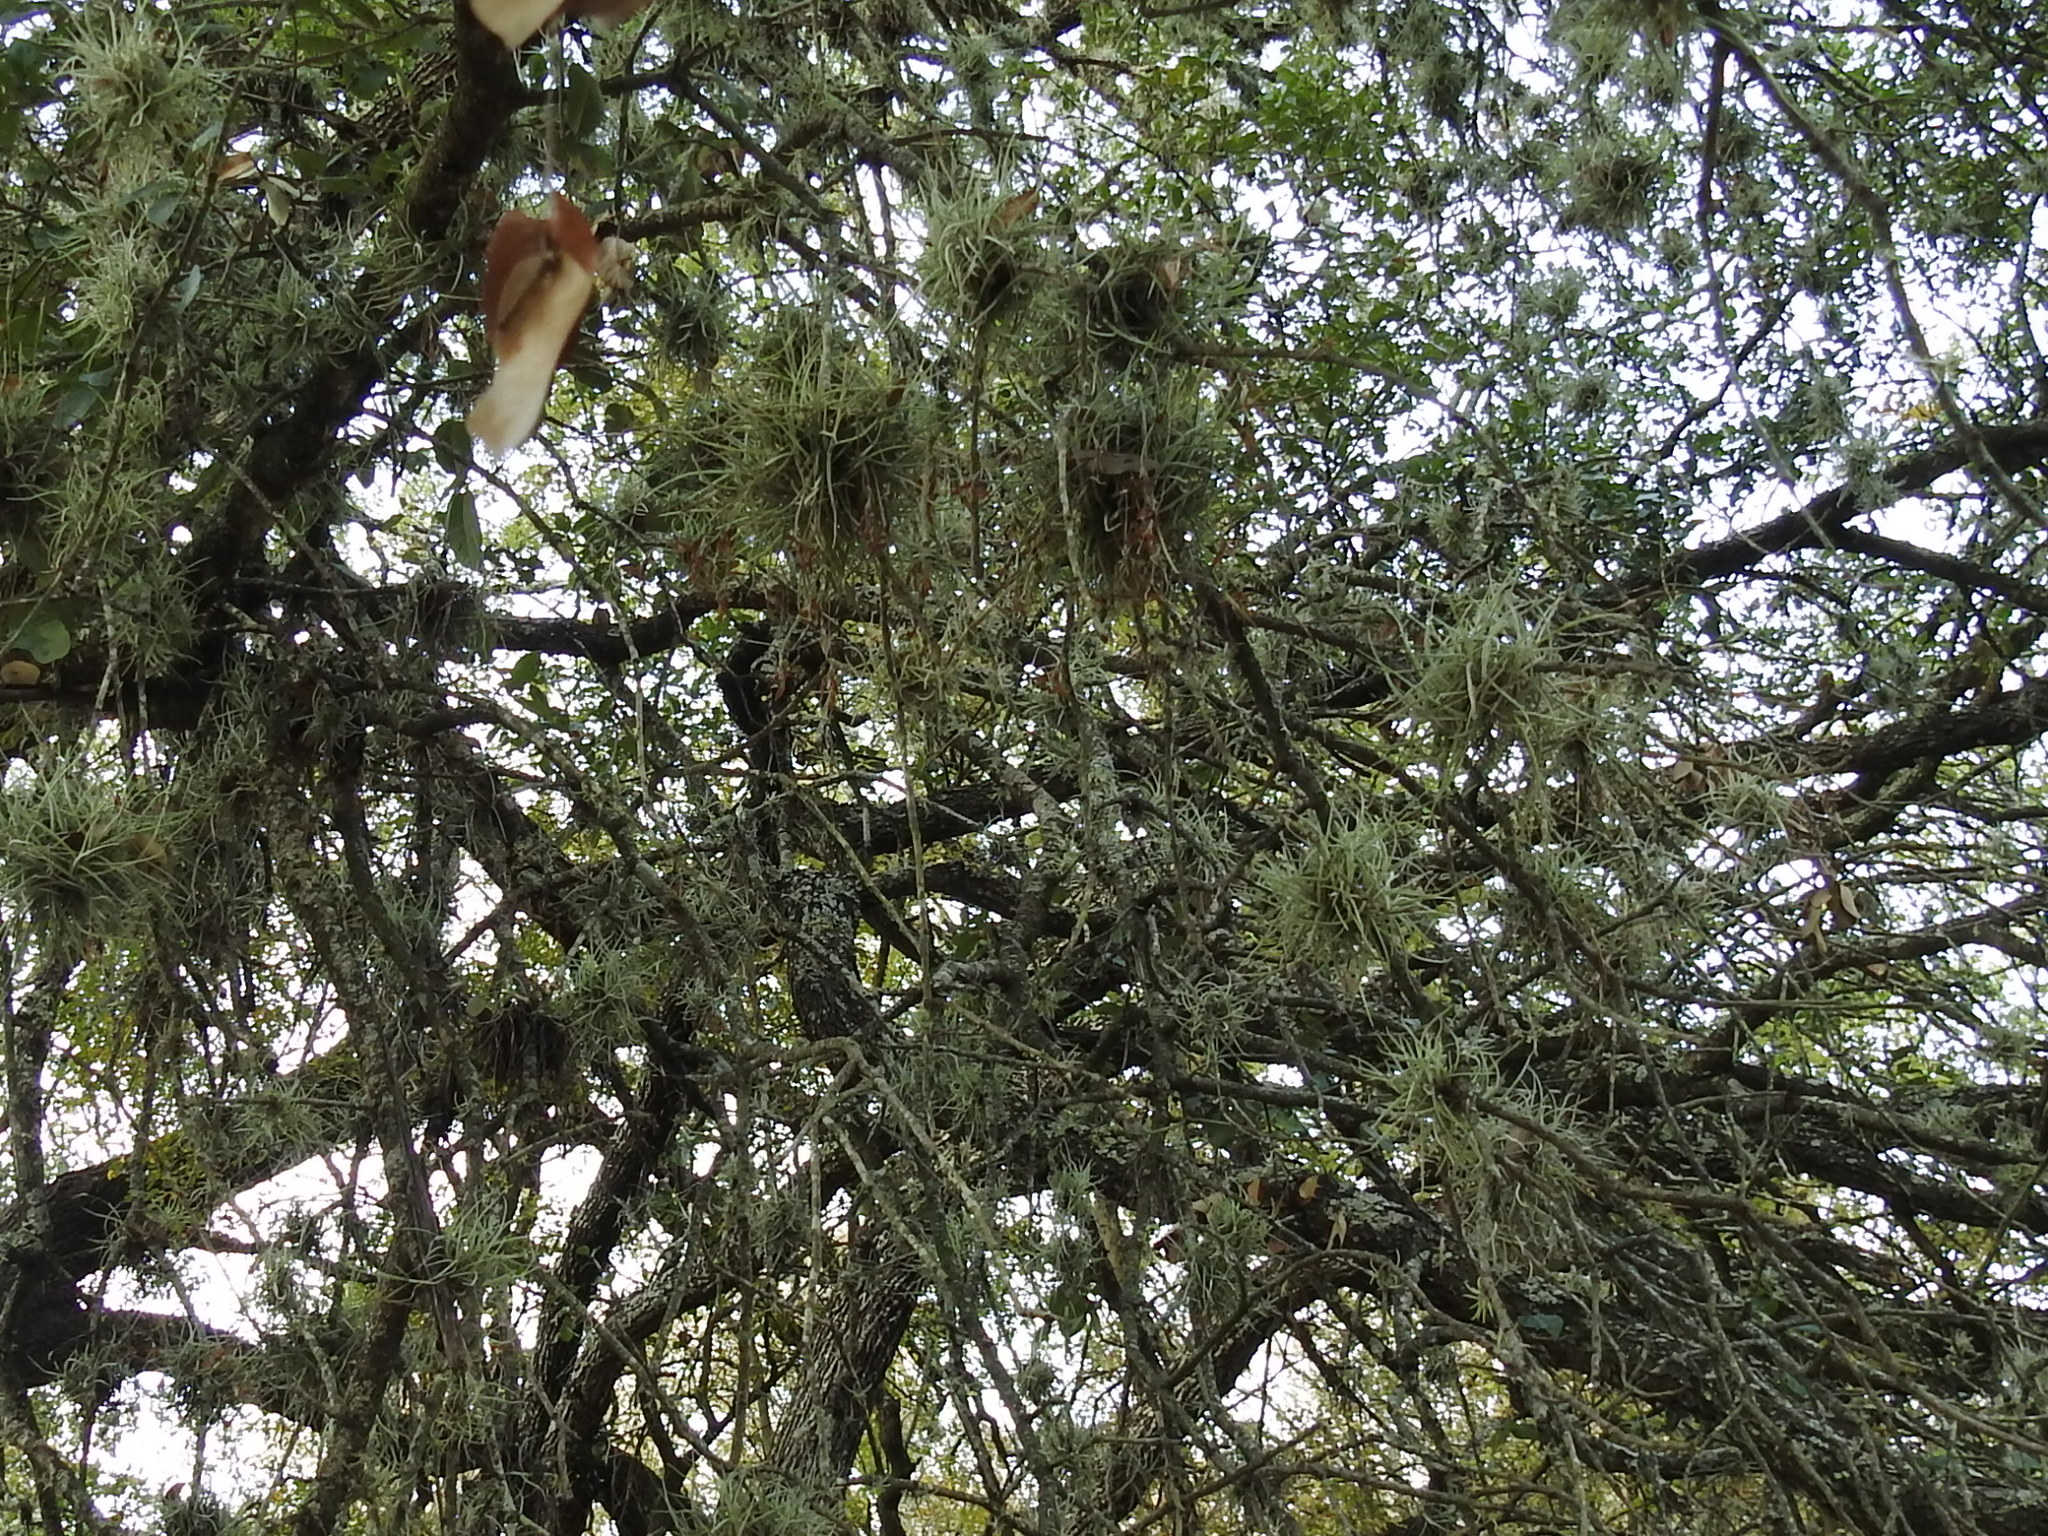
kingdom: Plantae
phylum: Tracheophyta
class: Liliopsida
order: Poales
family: Bromeliaceae
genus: Tillandsia
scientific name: Tillandsia recurvata
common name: Small ballmoss
